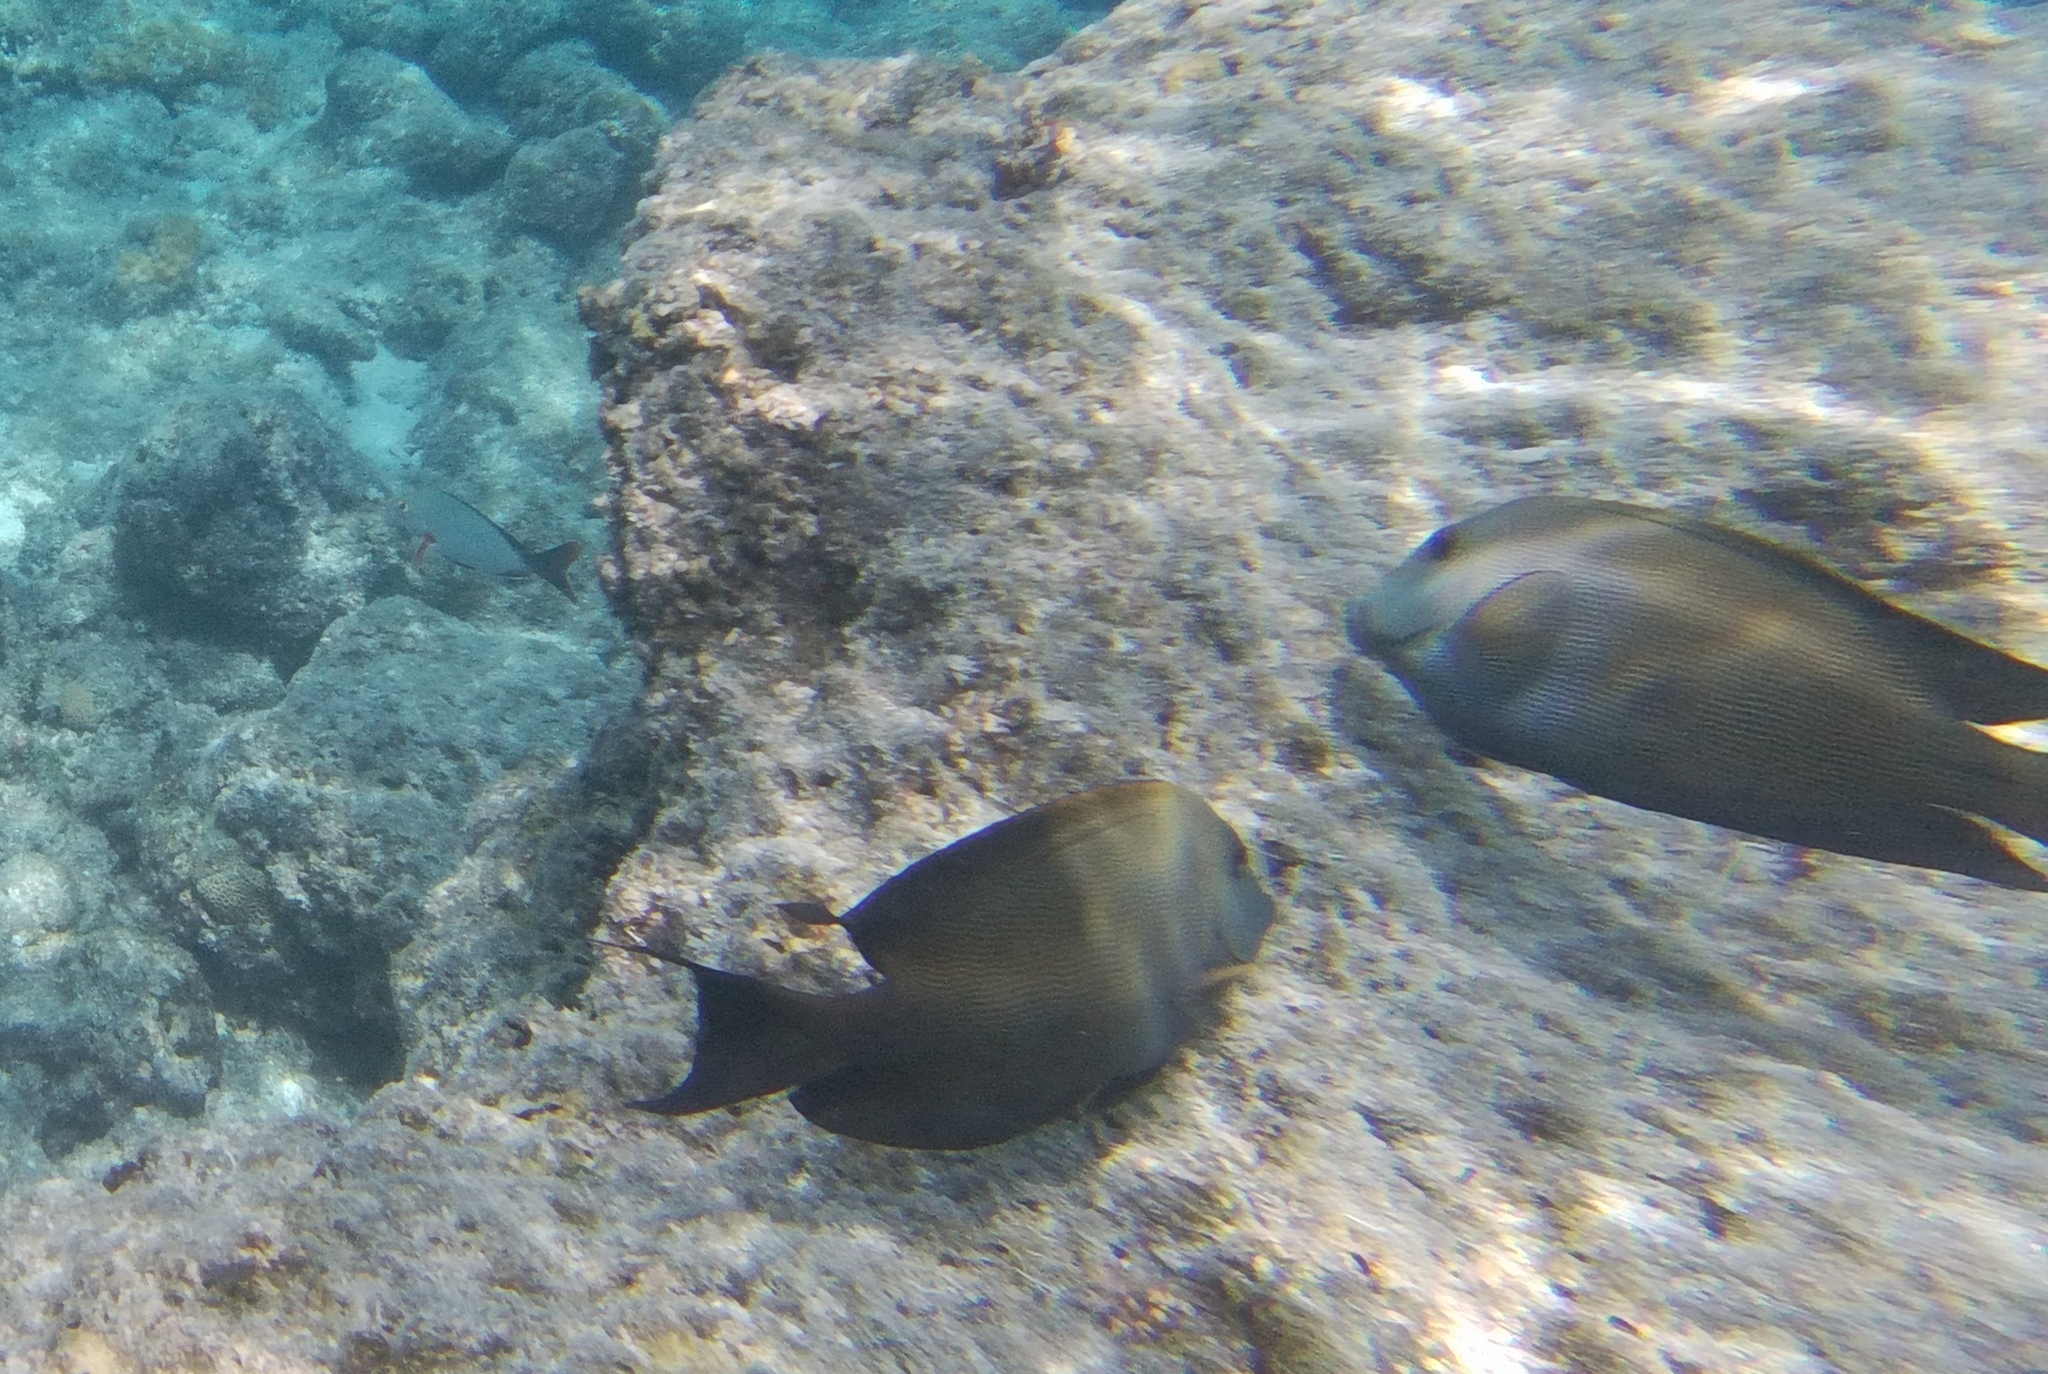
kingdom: Animalia
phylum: Chordata
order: Perciformes
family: Acanthuridae
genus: Ctenochaetus
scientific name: Ctenochaetus striatus
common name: Bristle-toothed surgeonfish
